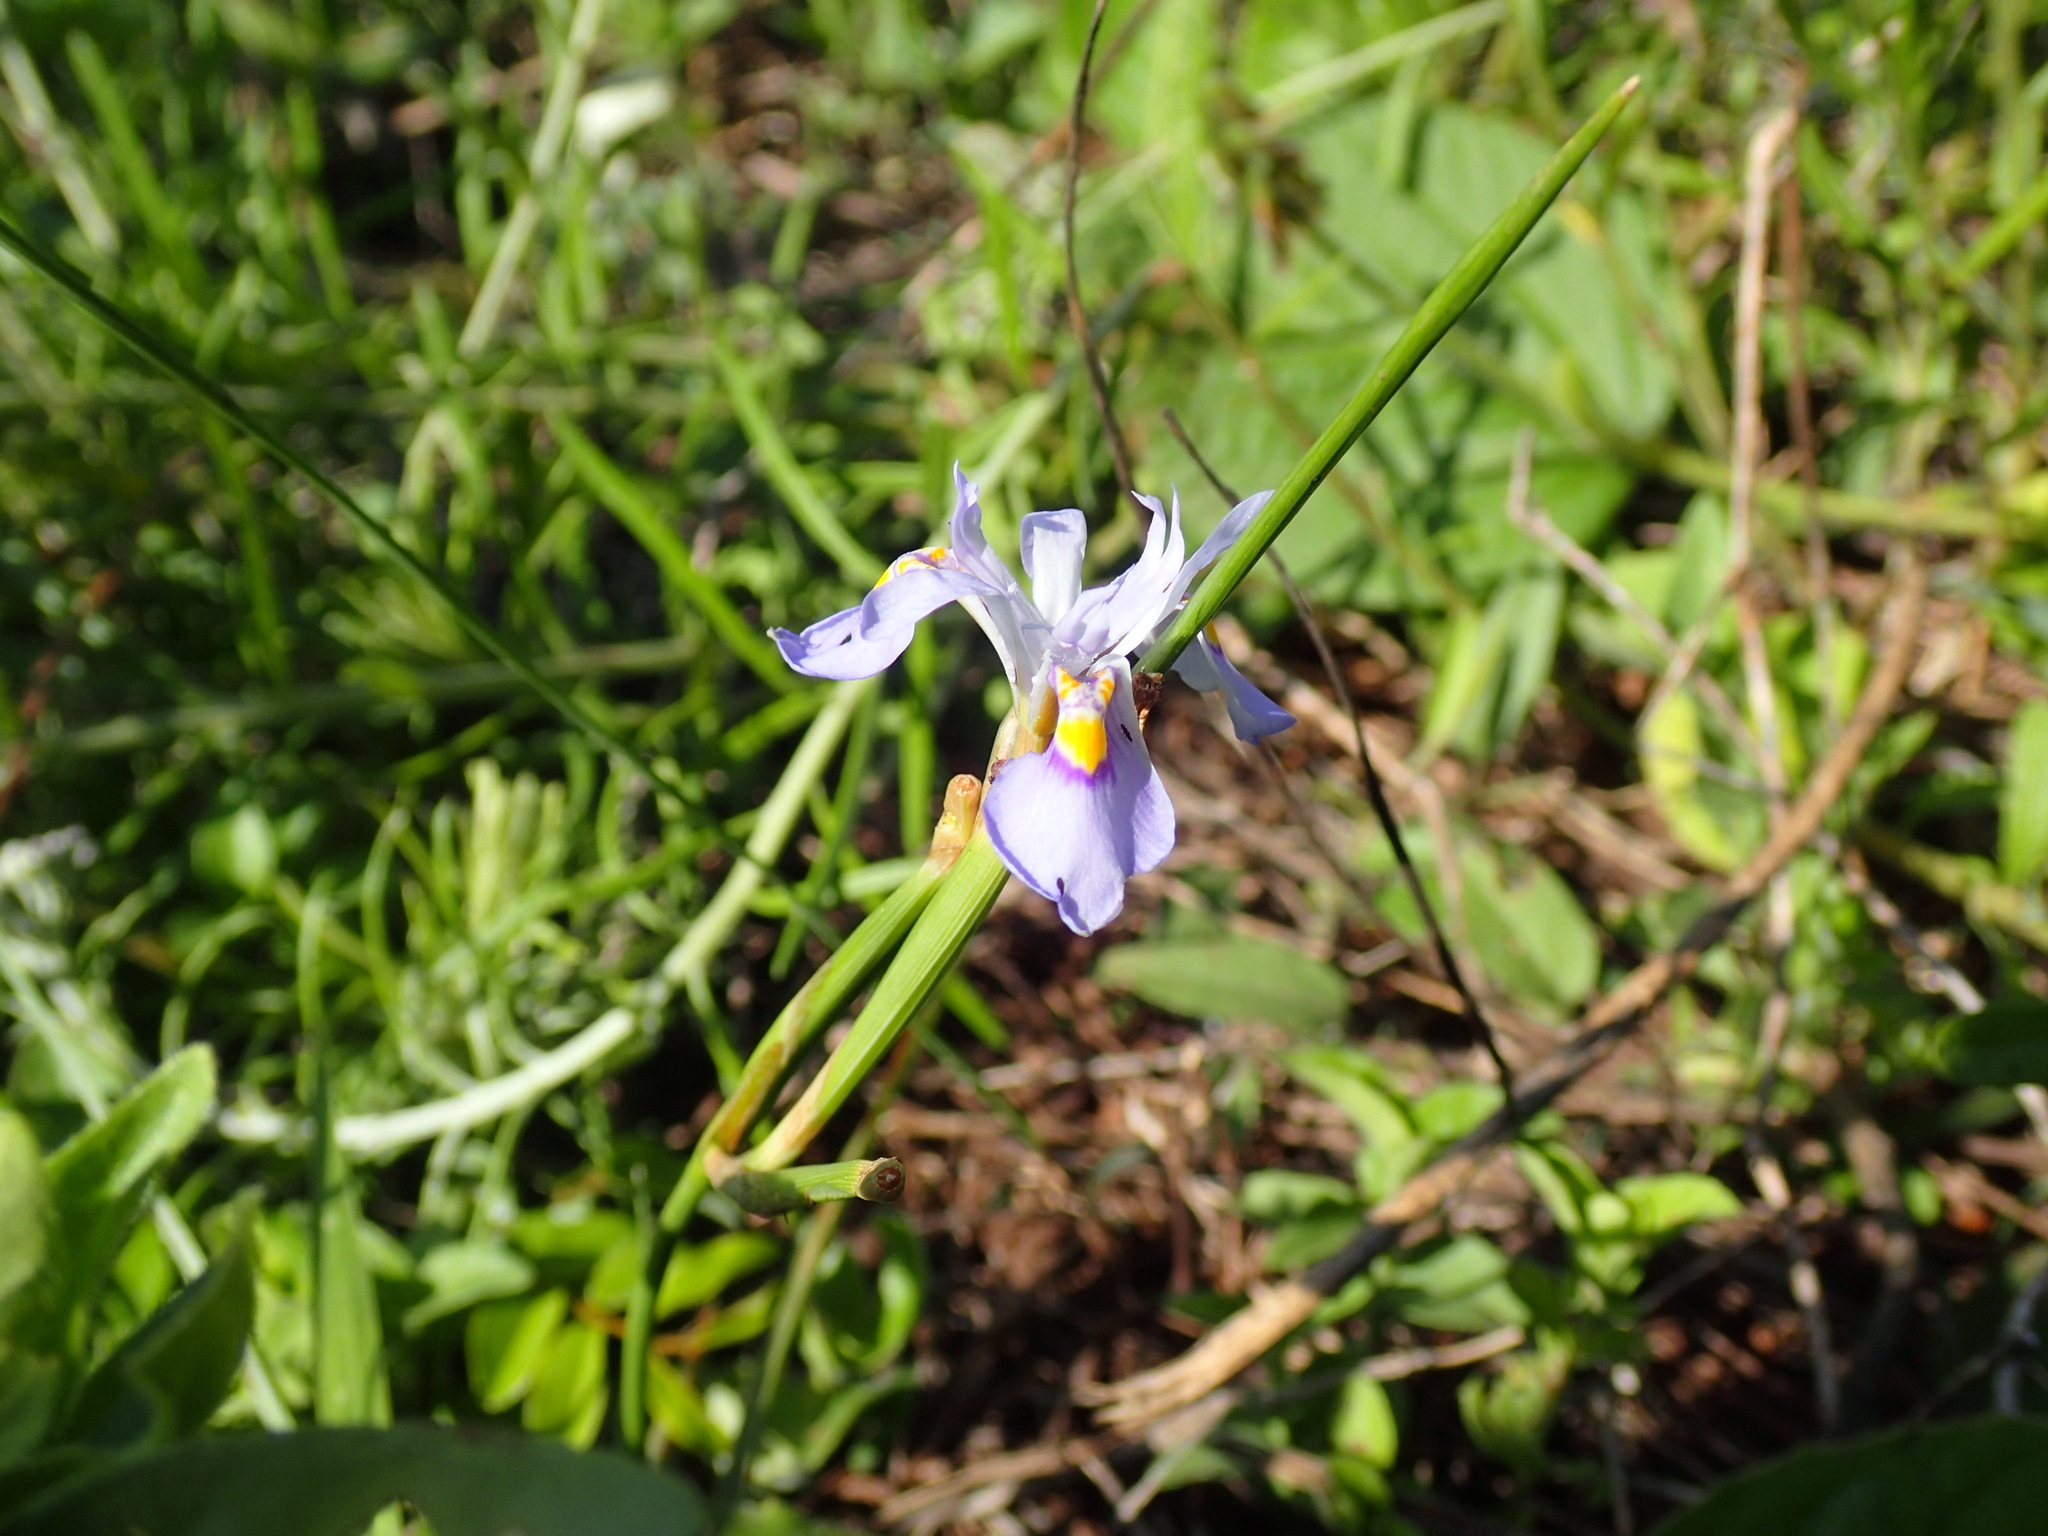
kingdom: Plantae
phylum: Tracheophyta
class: Liliopsida
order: Asparagales
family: Iridaceae
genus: Moraea
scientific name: Moraea stricta
